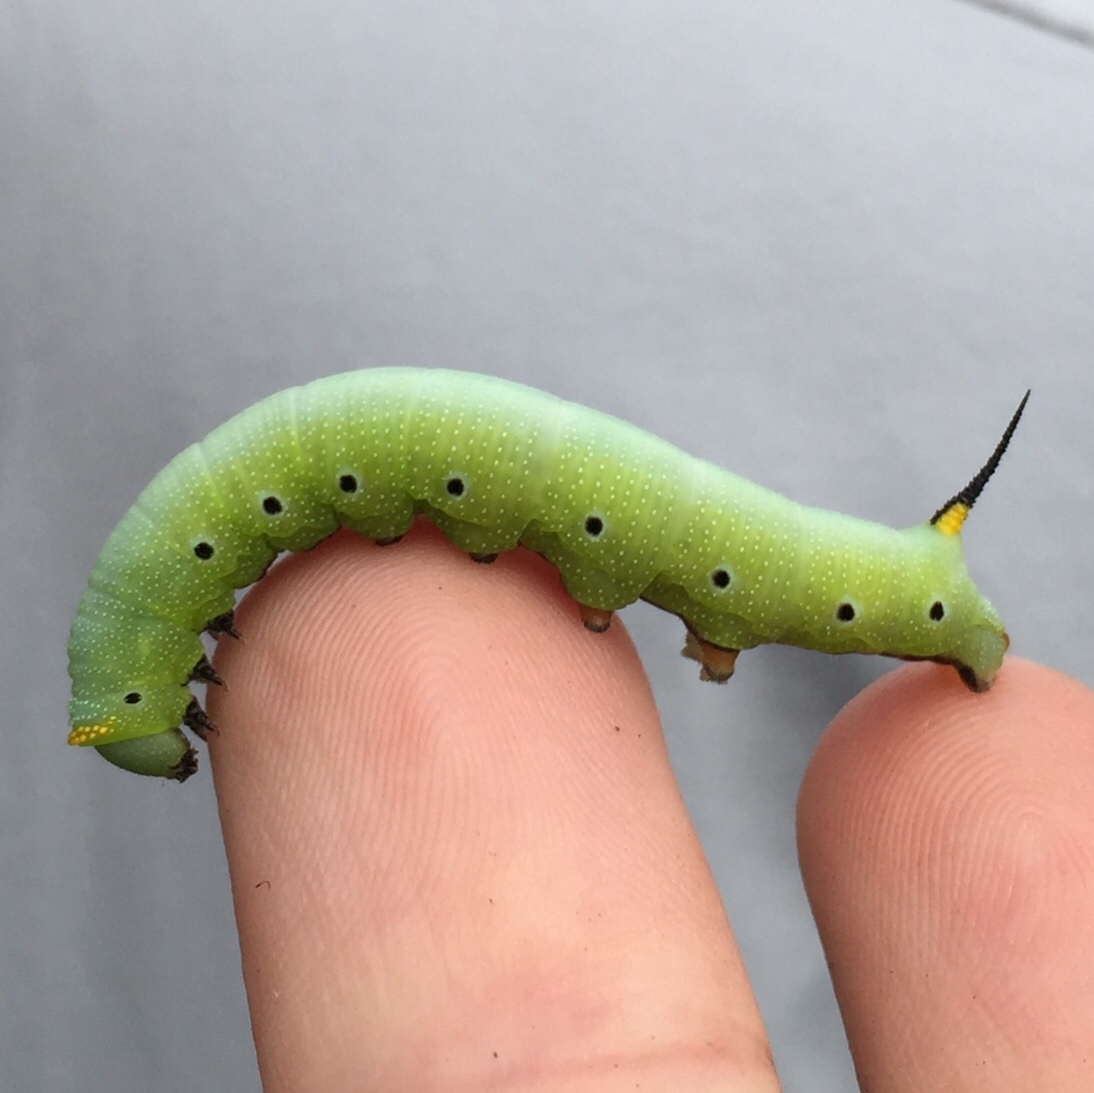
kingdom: Animalia
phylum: Arthropoda
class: Insecta
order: Lepidoptera
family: Sphingidae
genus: Hemaris
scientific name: Hemaris diffinis
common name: Bumblebee moth
